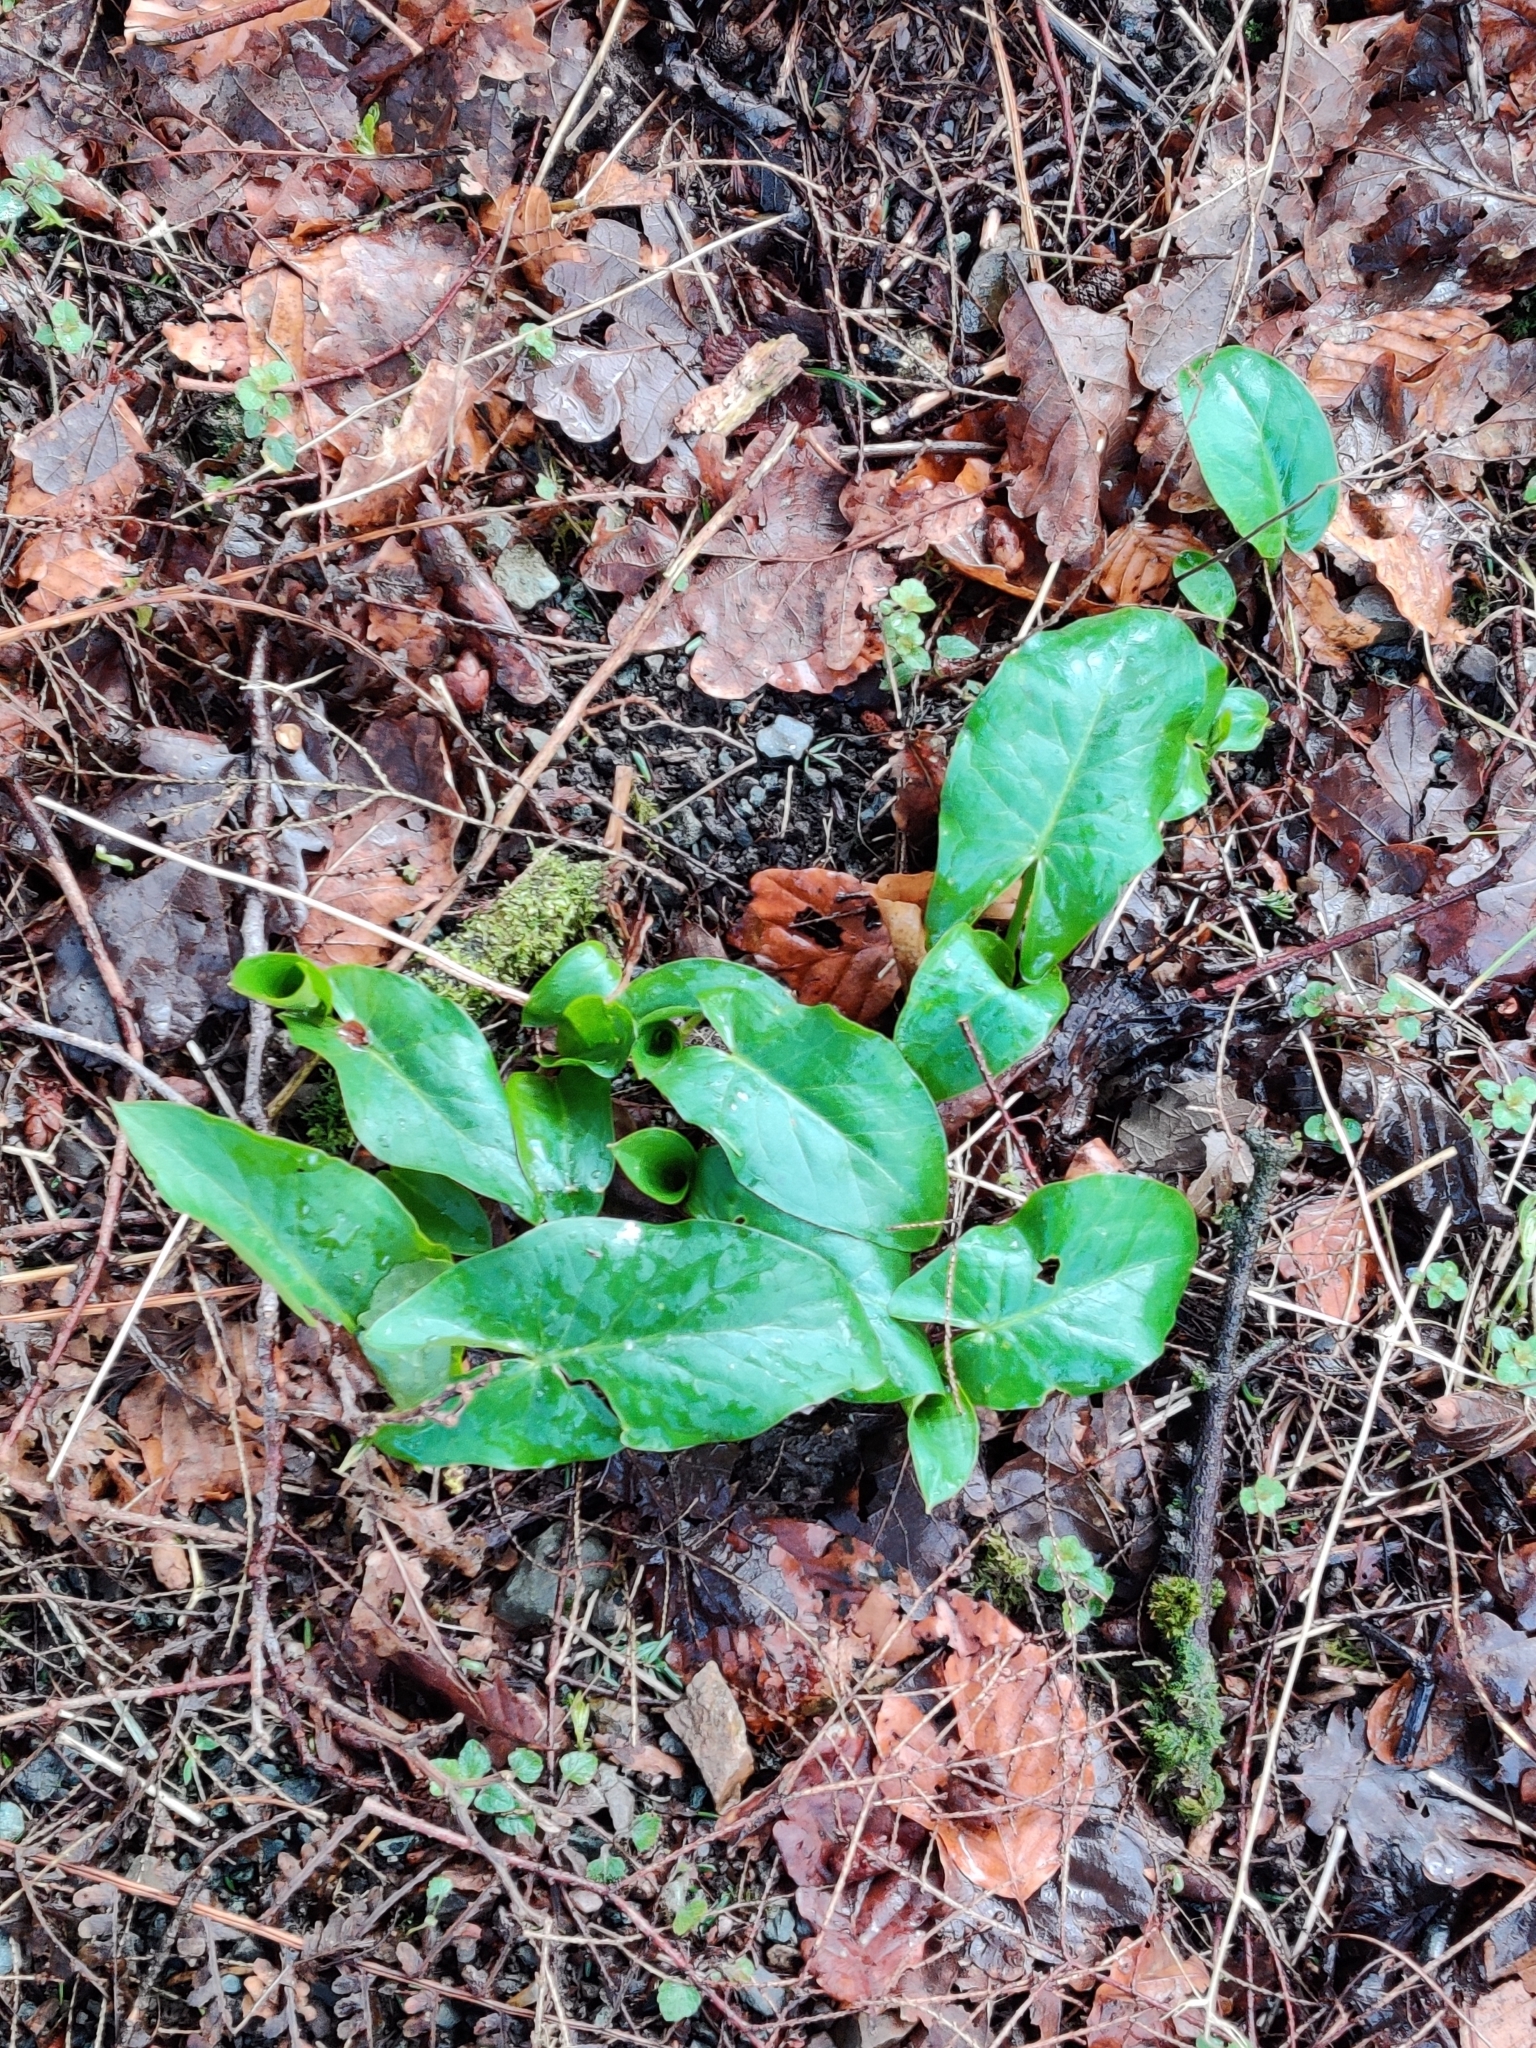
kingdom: Plantae
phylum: Tracheophyta
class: Liliopsida
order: Alismatales
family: Araceae
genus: Arum
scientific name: Arum maculatum
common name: Lords-and-ladies
